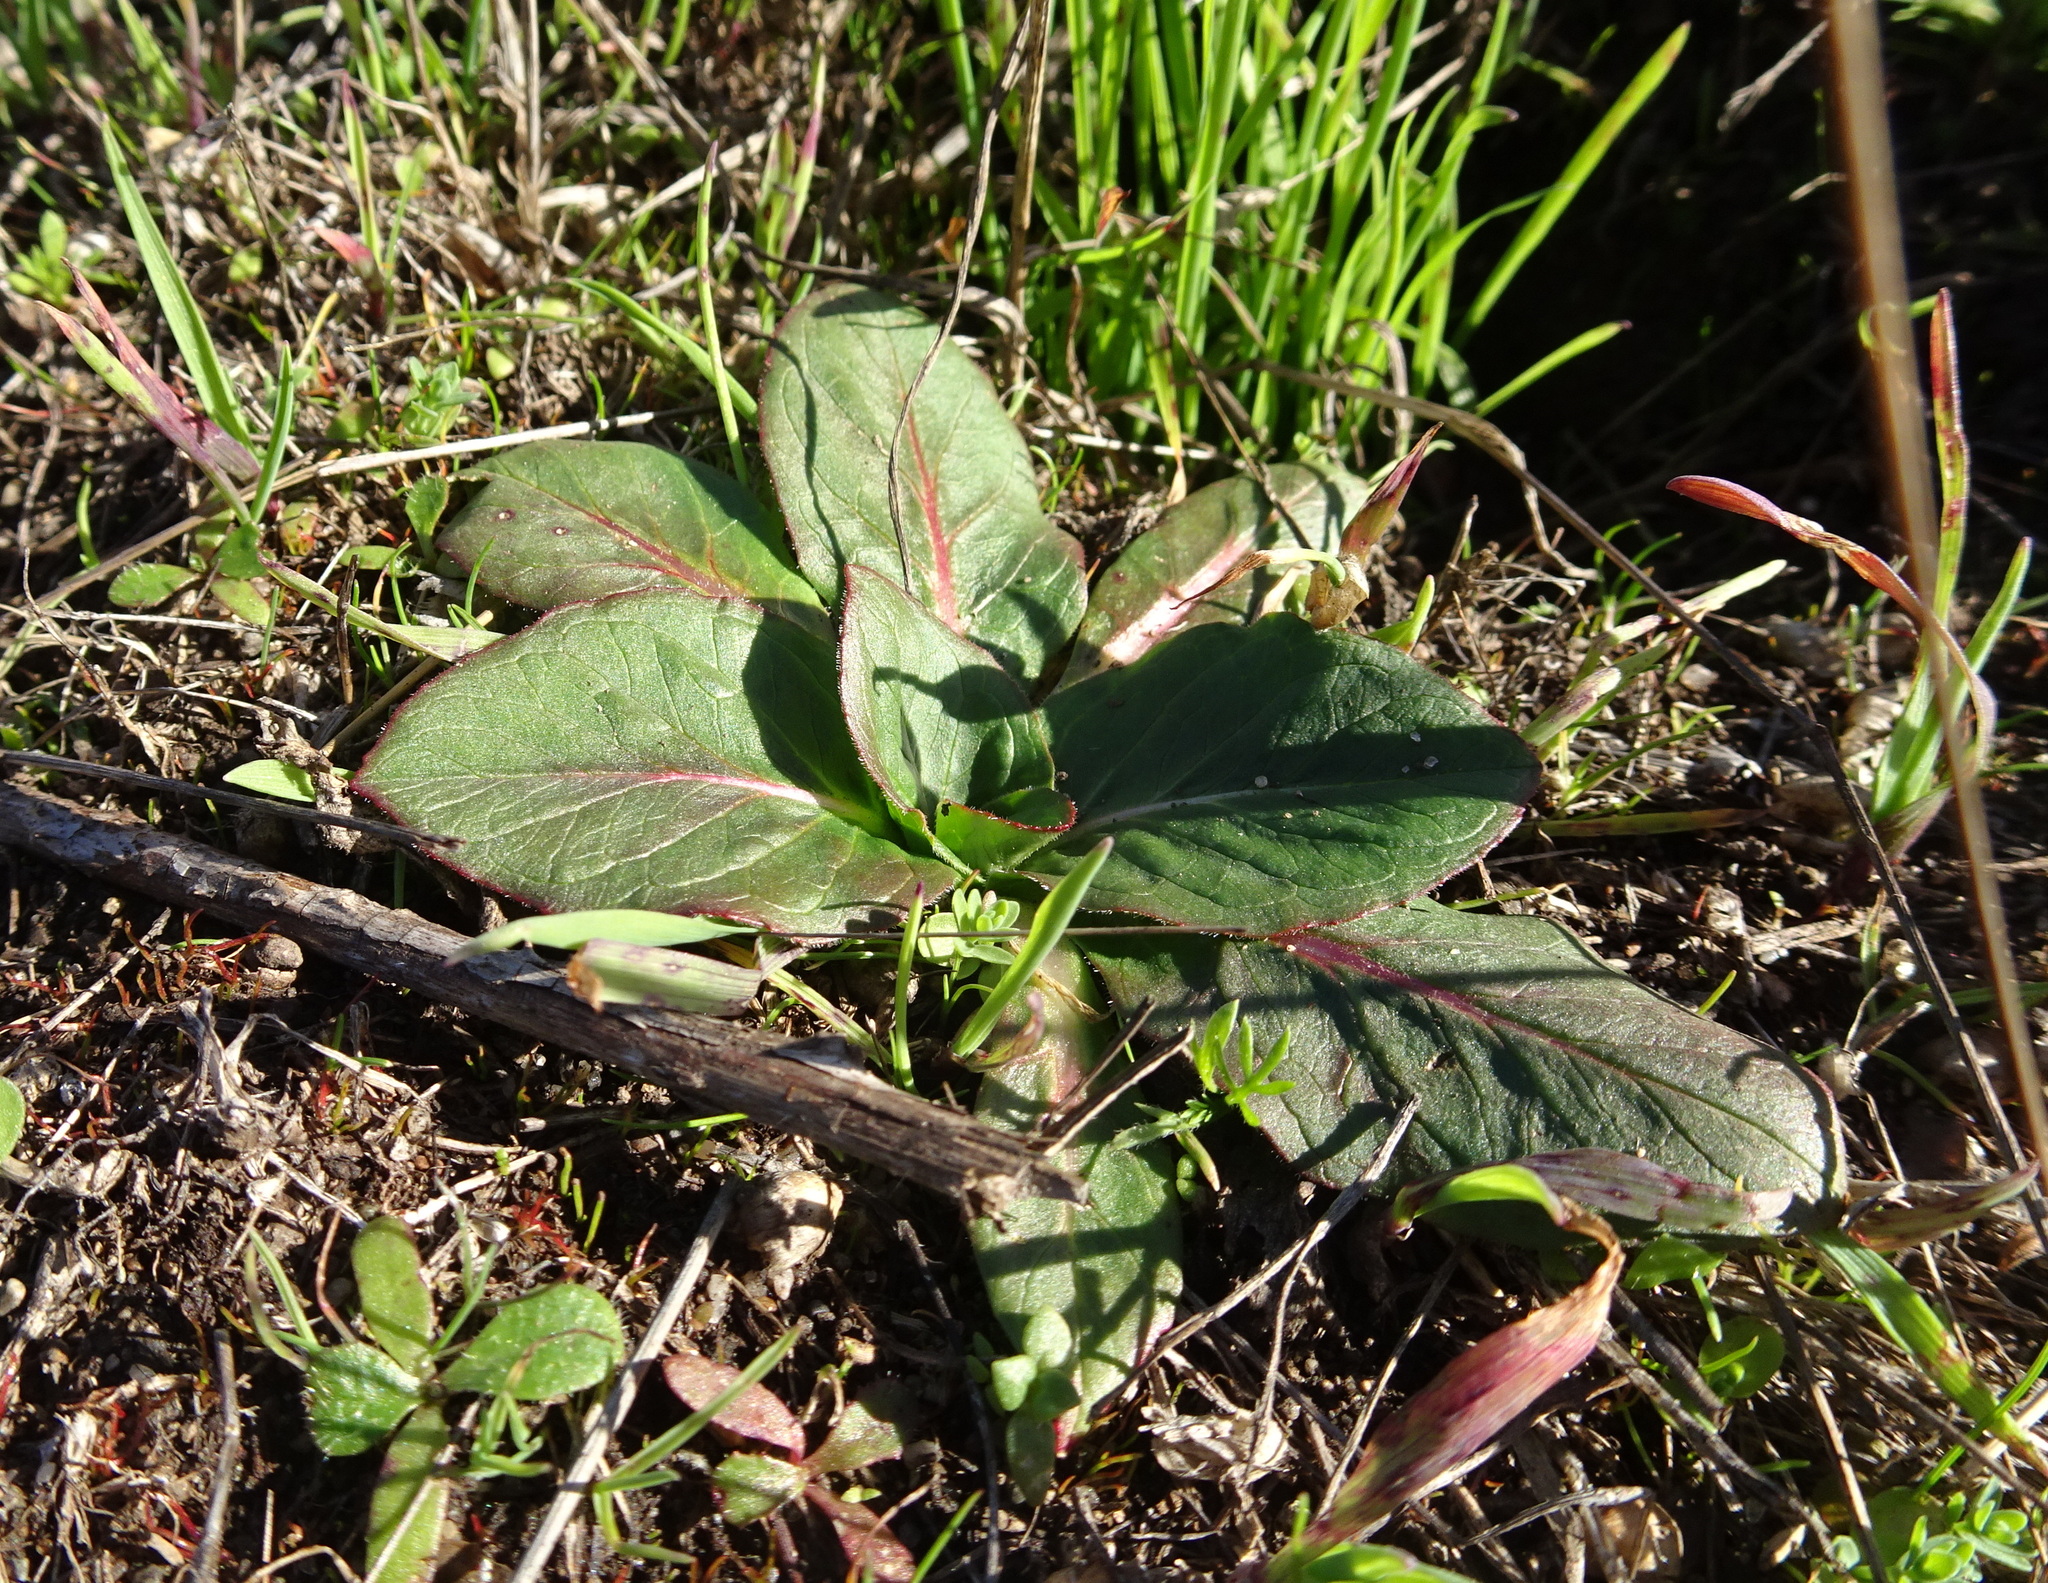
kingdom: Plantae
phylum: Tracheophyta
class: Magnoliopsida
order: Myrtales
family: Onagraceae
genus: Taraxia
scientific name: Taraxia ovata
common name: Goldeneggs
